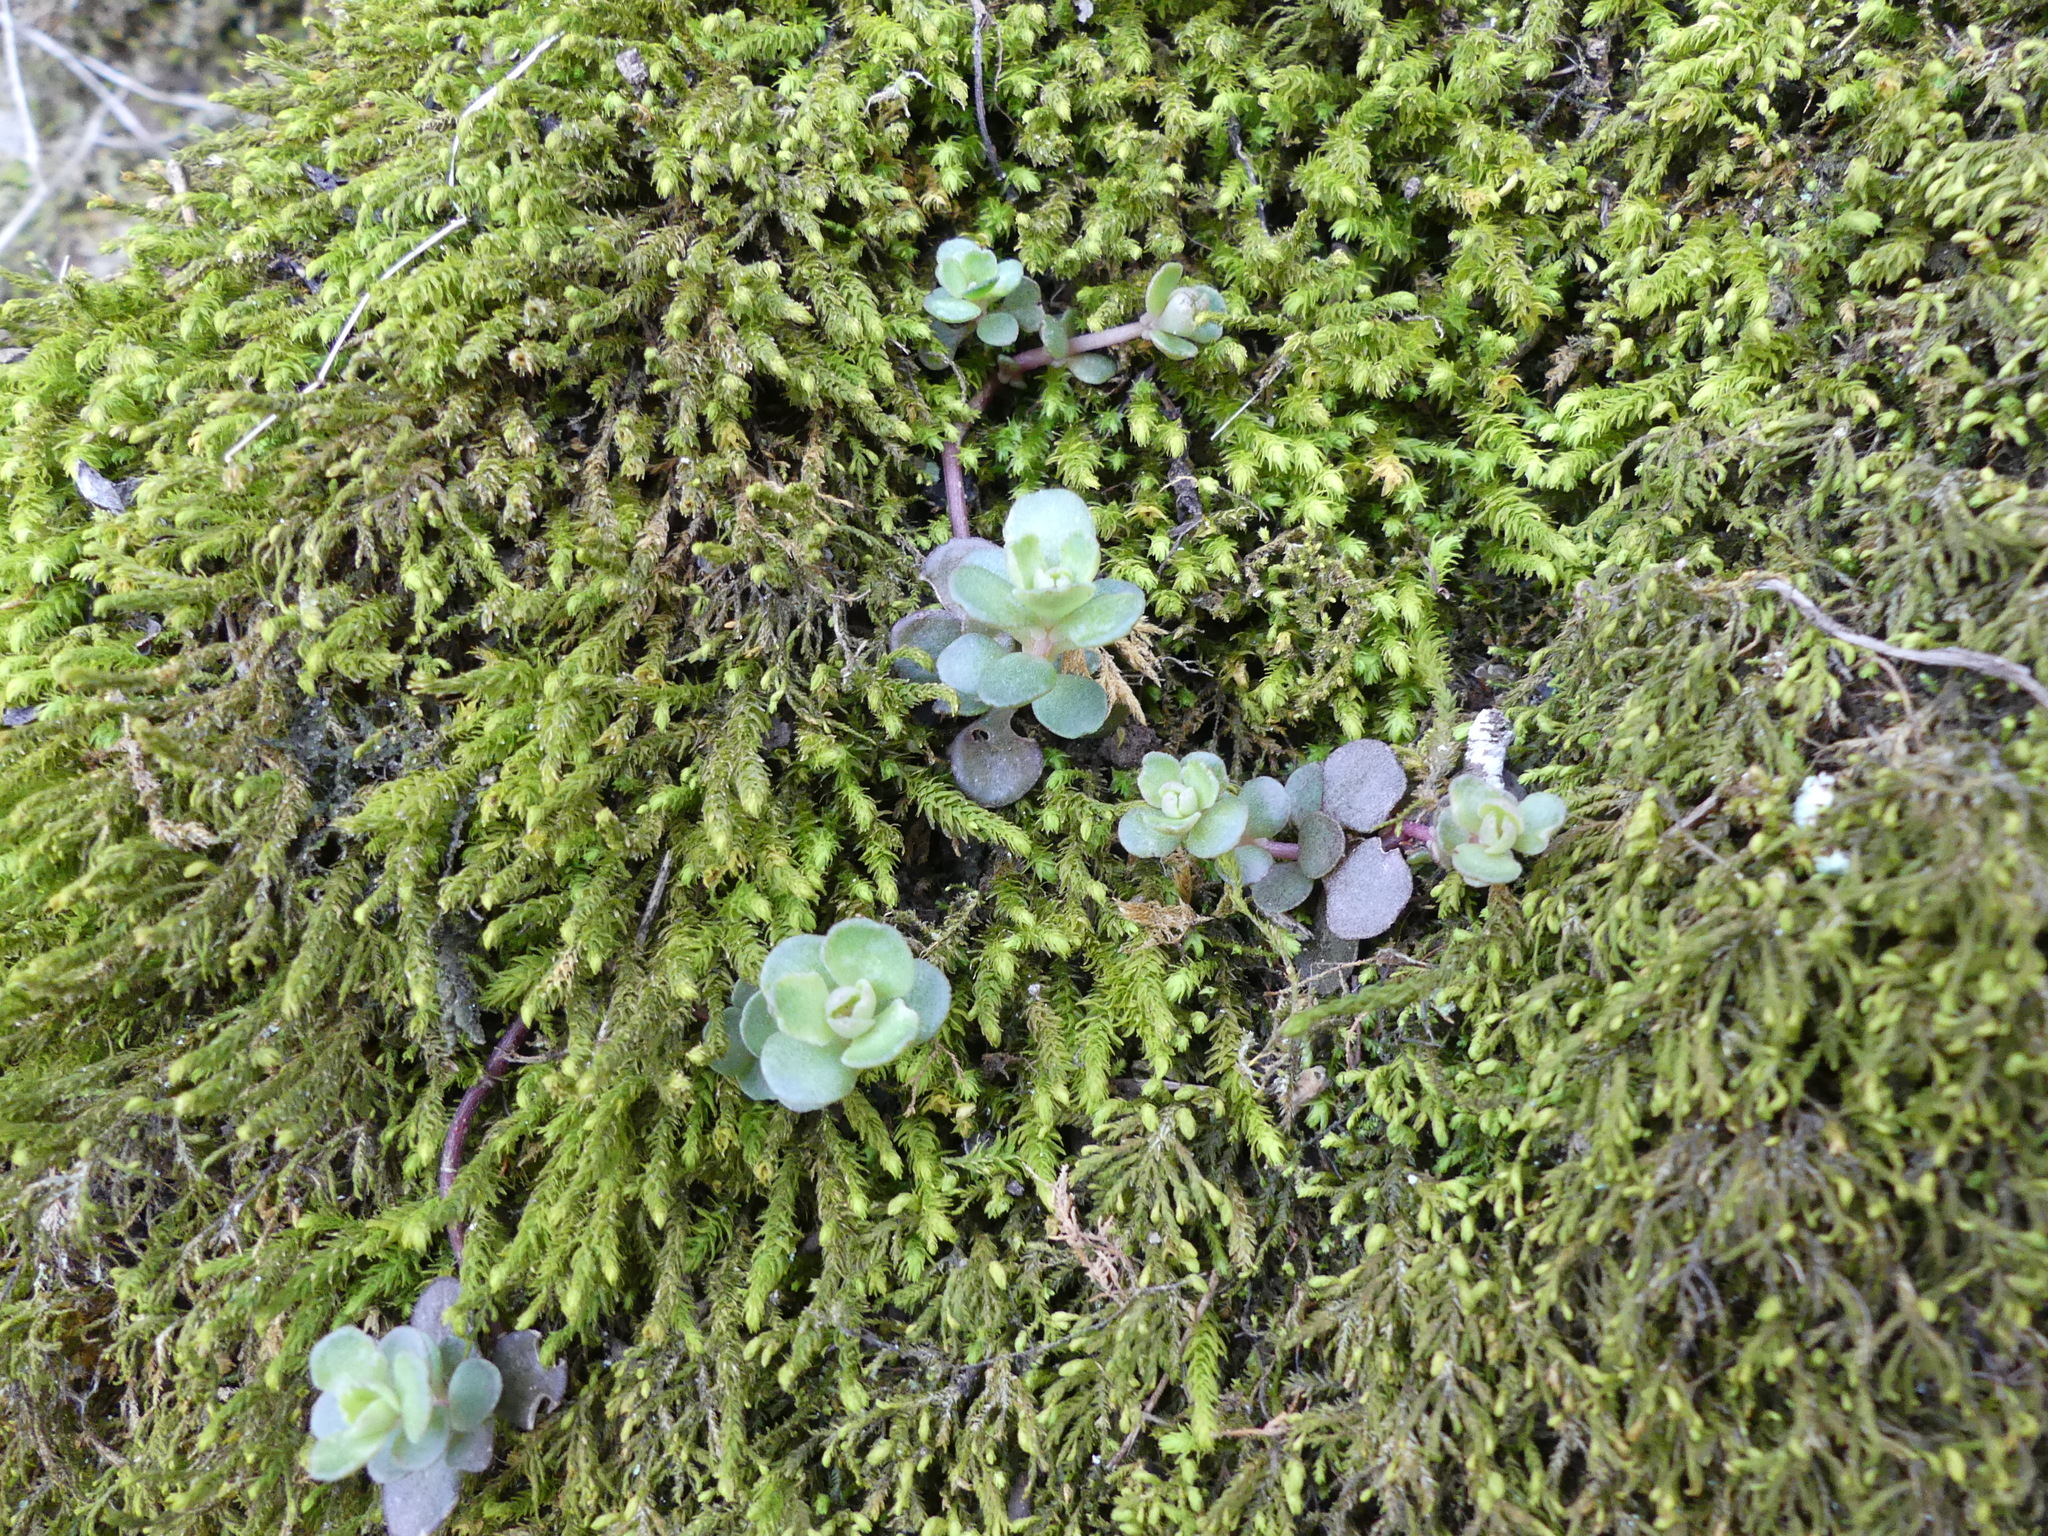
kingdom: Plantae
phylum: Tracheophyta
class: Magnoliopsida
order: Saxifragales
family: Crassulaceae
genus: Sedum
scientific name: Sedum ternatum
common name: Wild stonecrop
